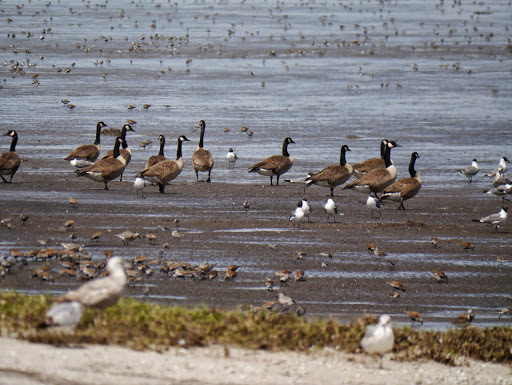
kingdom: Animalia
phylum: Chordata
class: Aves
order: Anseriformes
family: Anatidae
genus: Branta
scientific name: Branta canadensis
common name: Canada goose
